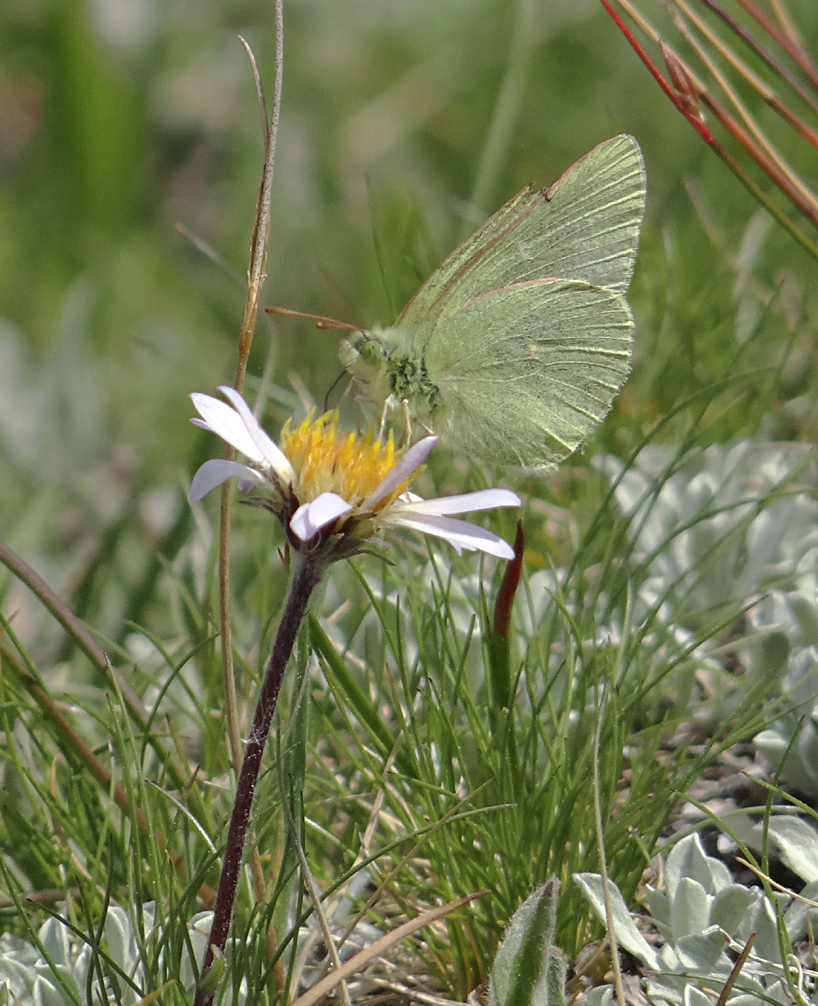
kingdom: Animalia
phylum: Arthropoda
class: Insecta
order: Lepidoptera
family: Pieridae
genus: Colias
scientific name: Colias behrii
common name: Behr's sulphur
